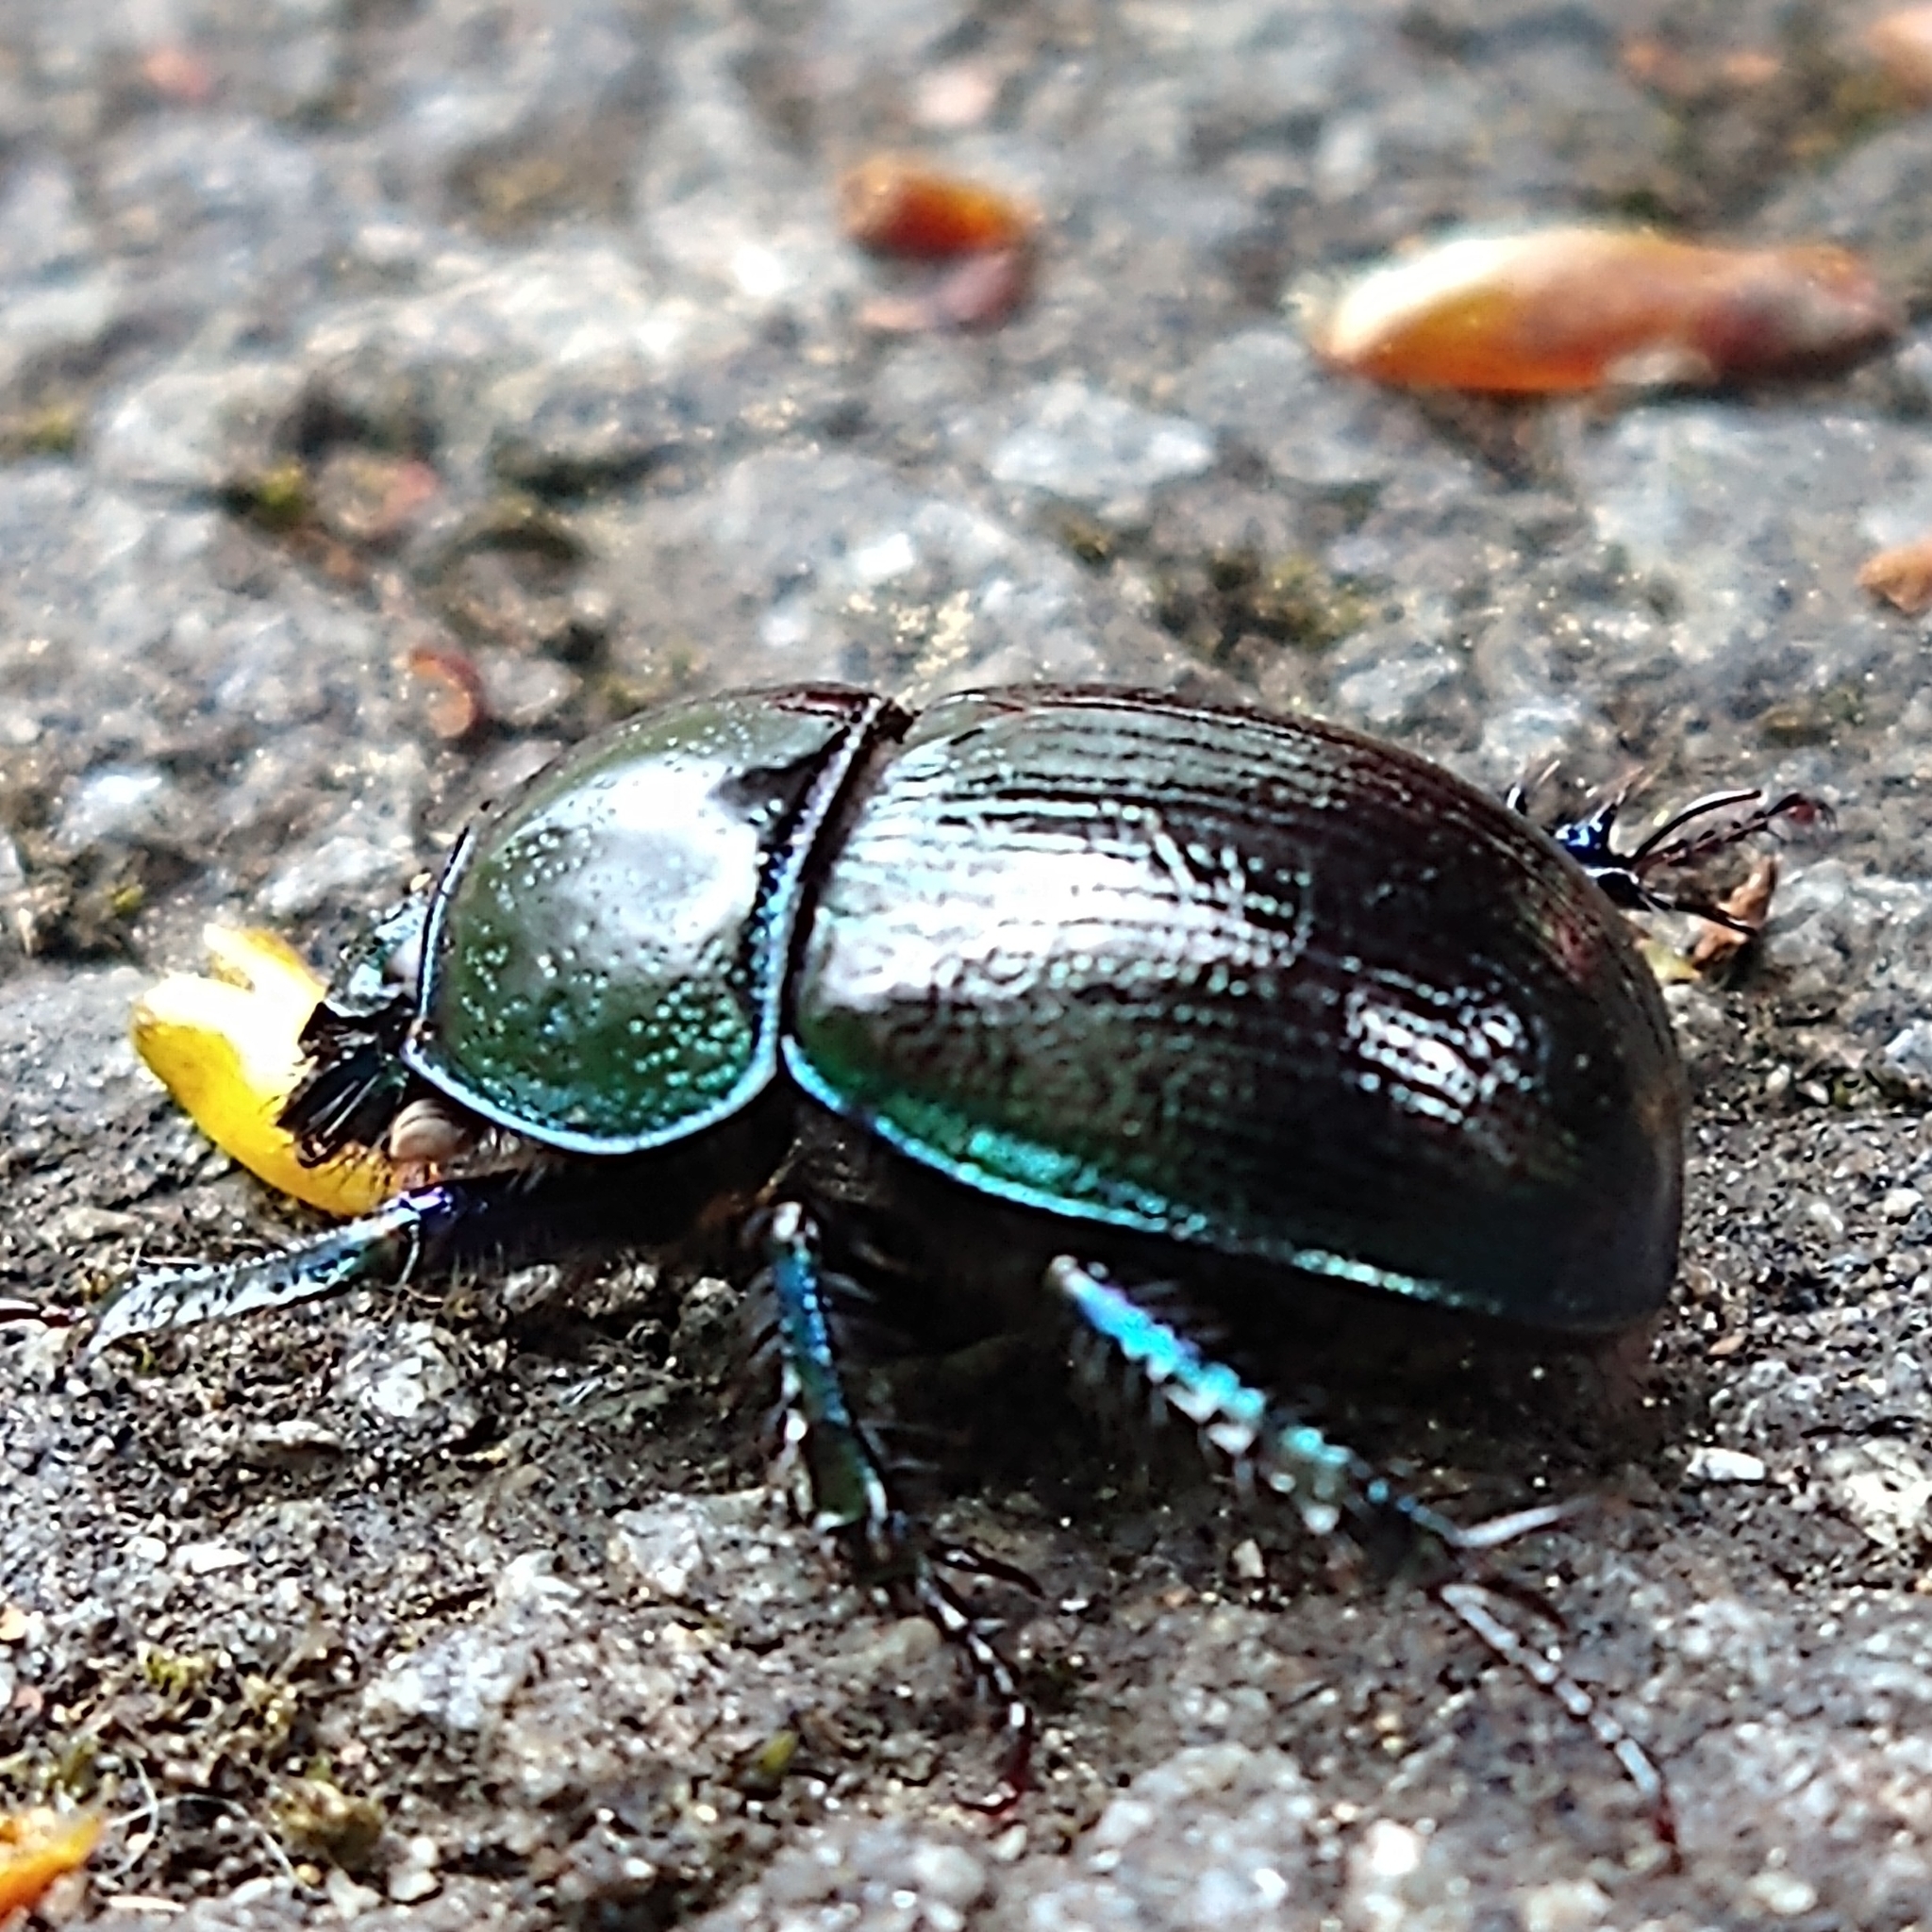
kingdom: Animalia
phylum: Arthropoda
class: Insecta
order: Coleoptera
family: Geotrupidae
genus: Anoplotrupes
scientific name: Anoplotrupes stercorosus
